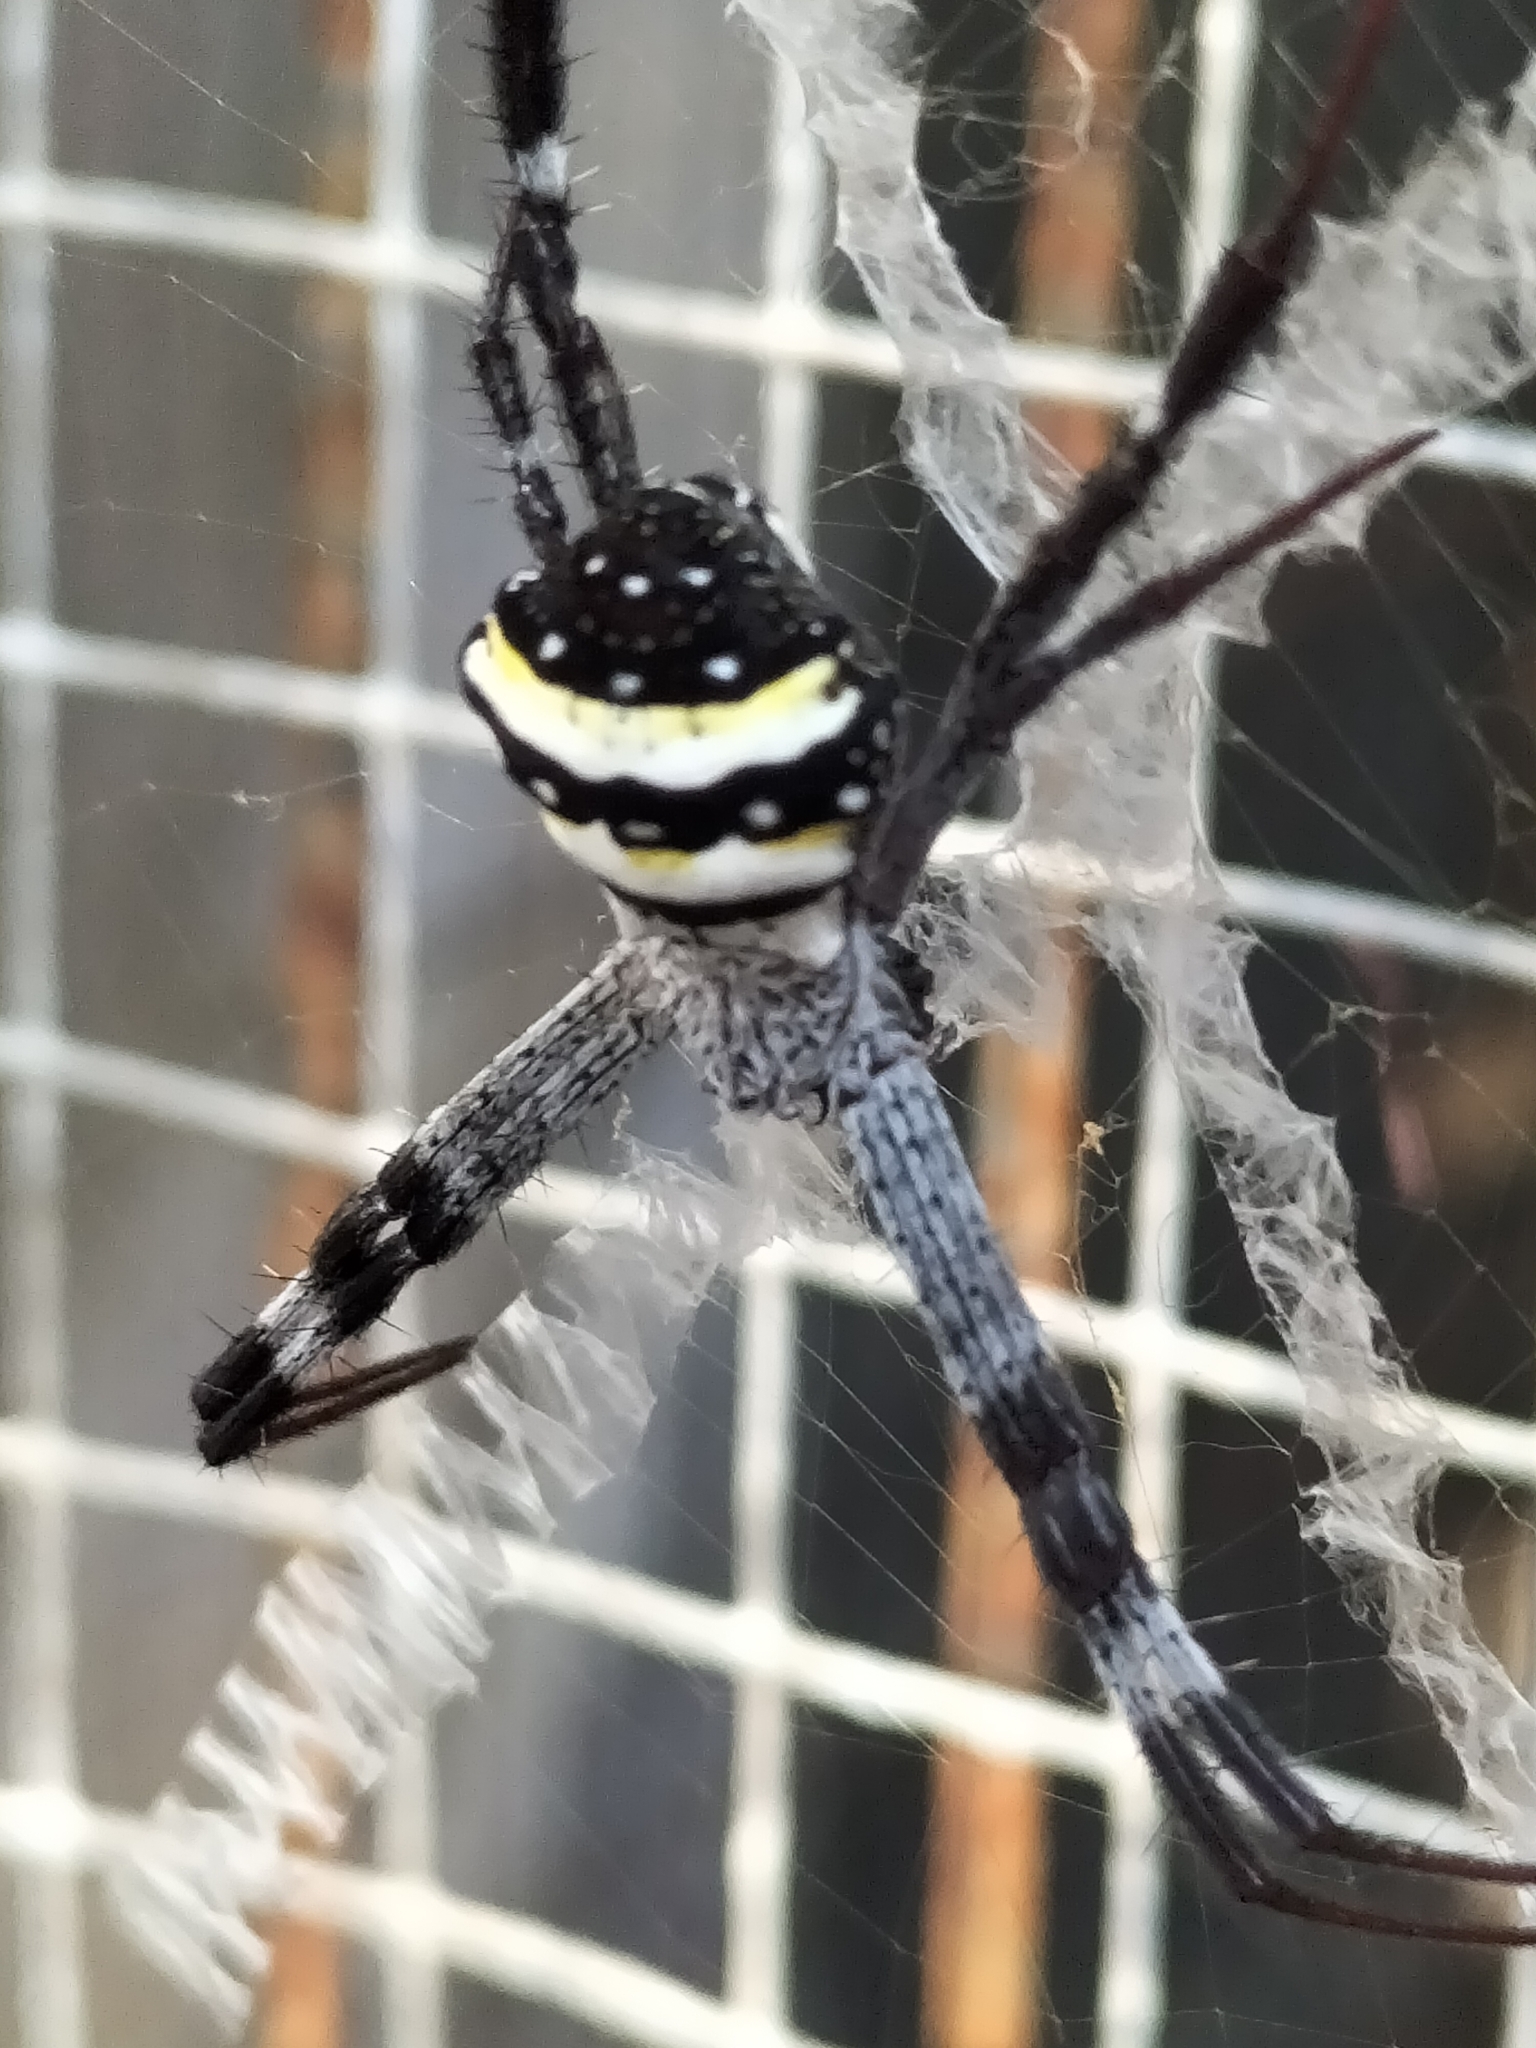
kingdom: Animalia
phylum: Arthropoda
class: Arachnida
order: Araneae
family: Araneidae
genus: Argiope
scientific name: Argiope aetherea
